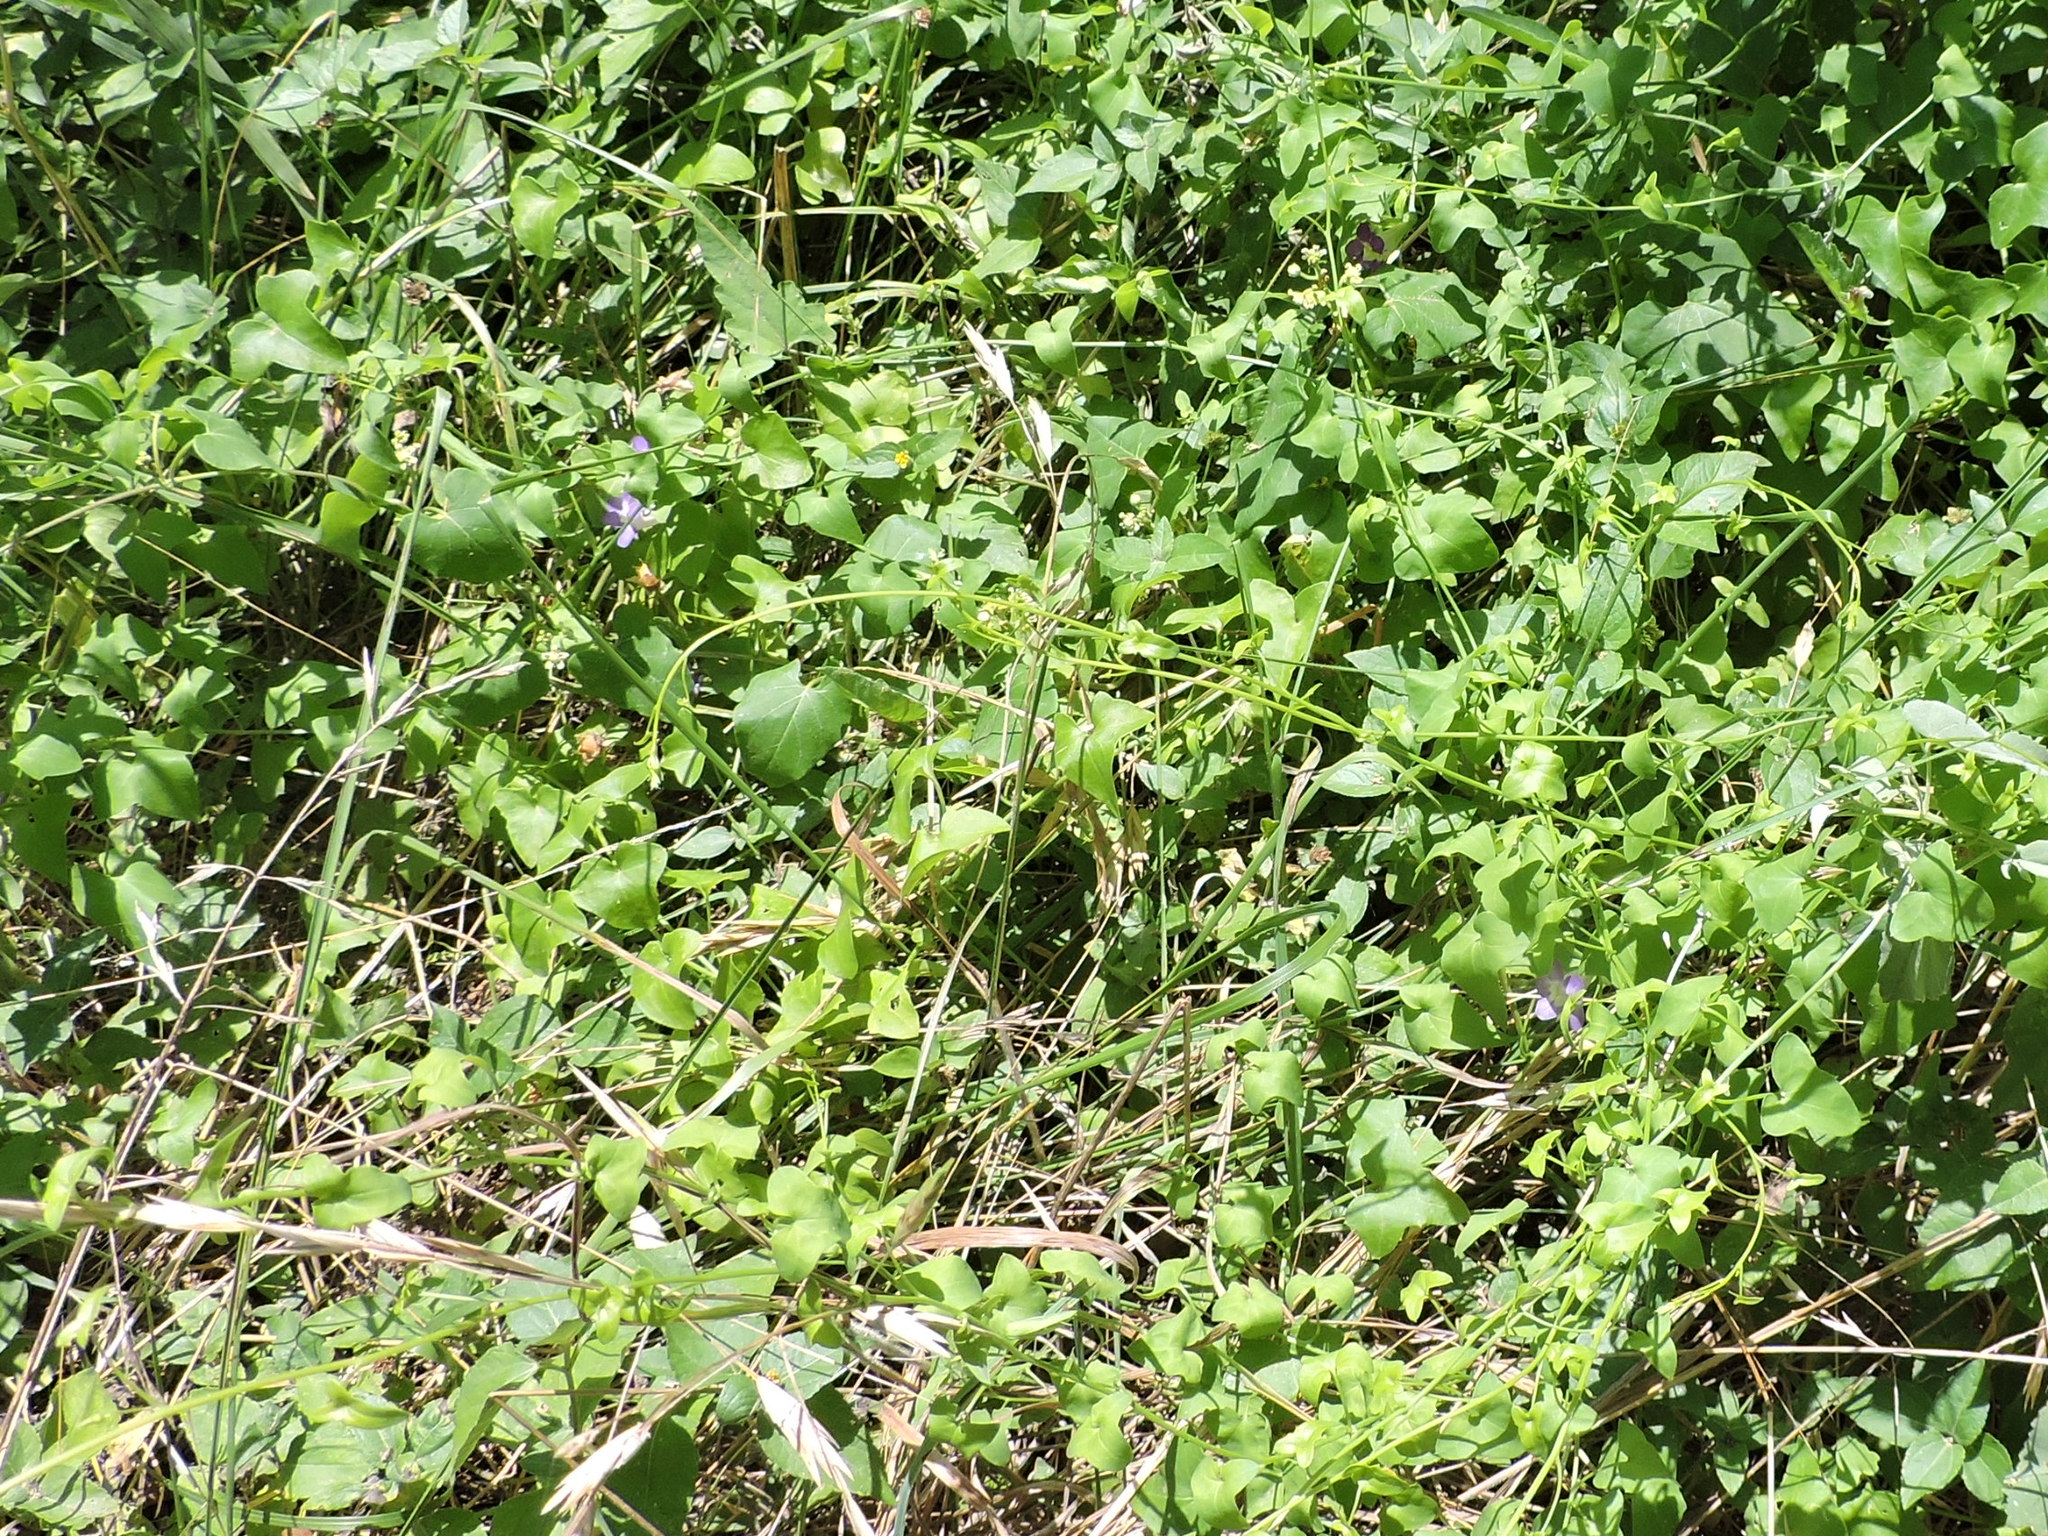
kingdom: Plantae
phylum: Tracheophyta
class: Magnoliopsida
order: Lamiales
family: Plantaginaceae
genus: Maurandella
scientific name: Maurandella antirrhiniflora
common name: Violet twining-snapdragon
